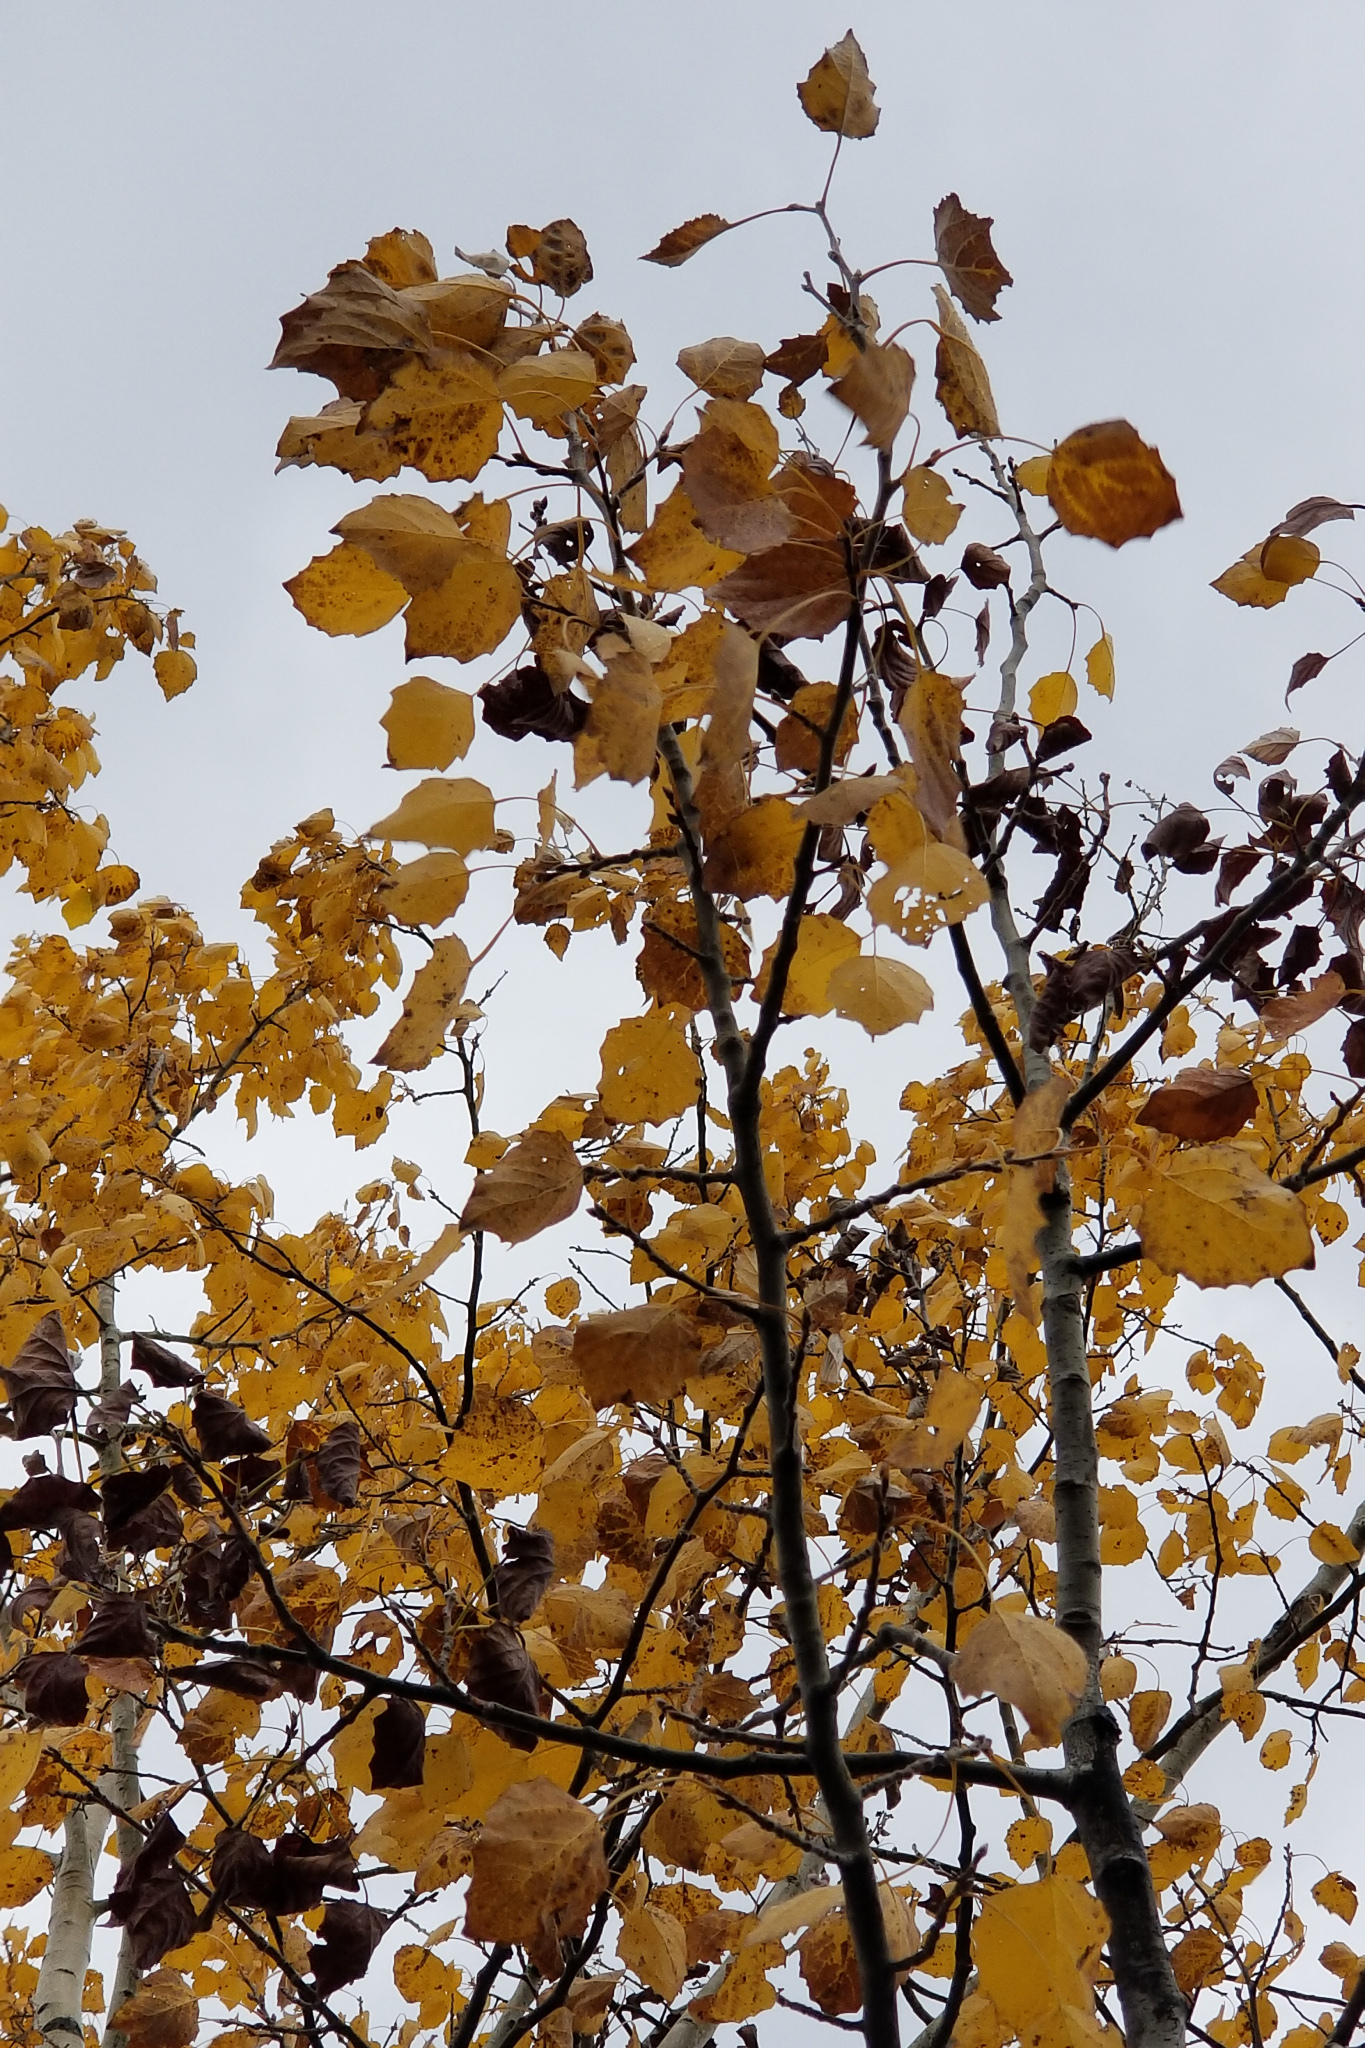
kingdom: Plantae
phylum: Tracheophyta
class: Magnoliopsida
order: Malpighiales
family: Salicaceae
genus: Populus
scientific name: Populus tremuloides
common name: Quaking aspen
